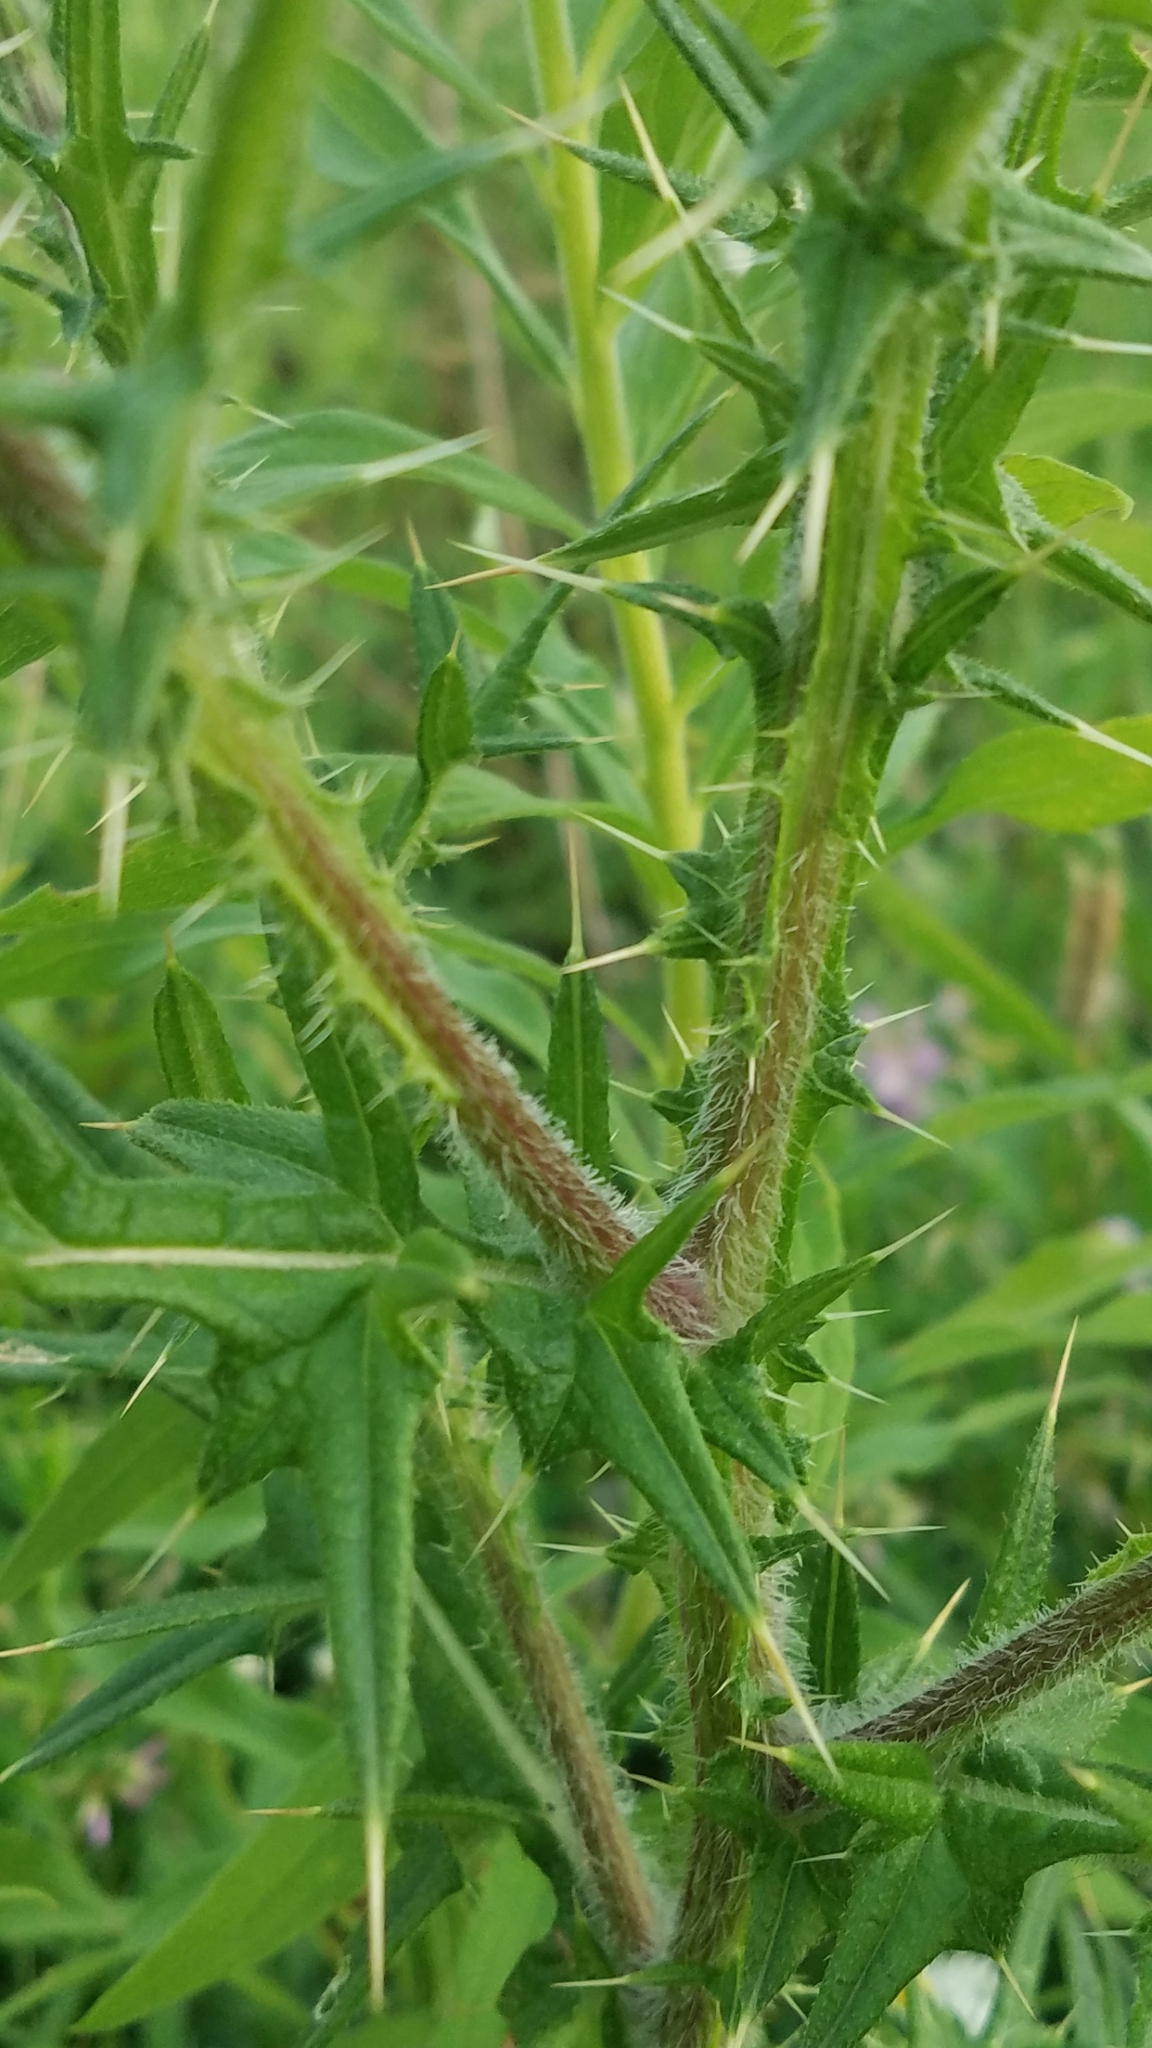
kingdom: Plantae
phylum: Tracheophyta
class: Magnoliopsida
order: Asterales
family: Asteraceae
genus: Cirsium
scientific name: Cirsium vulgare
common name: Bull thistle
